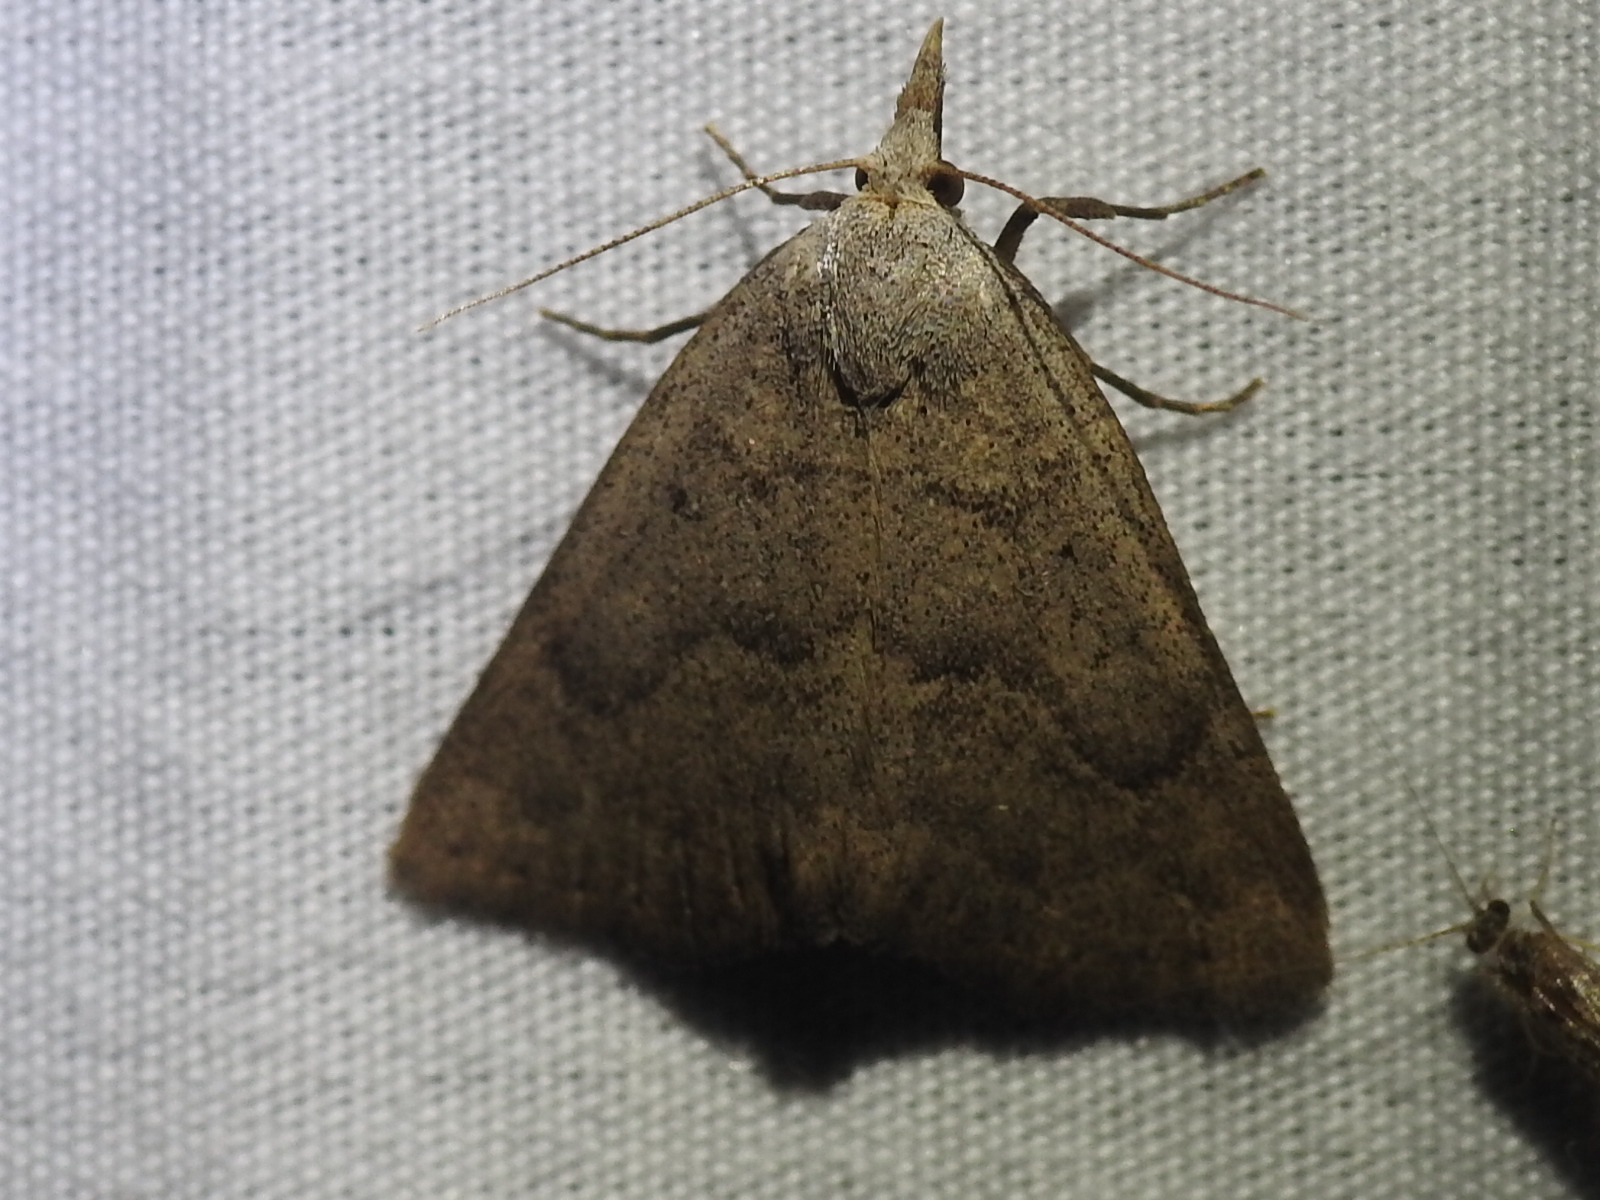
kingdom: Animalia
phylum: Arthropoda
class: Insecta
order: Lepidoptera
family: Erebidae
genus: Pseudorgyia
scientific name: Pseudorgyia versuta
